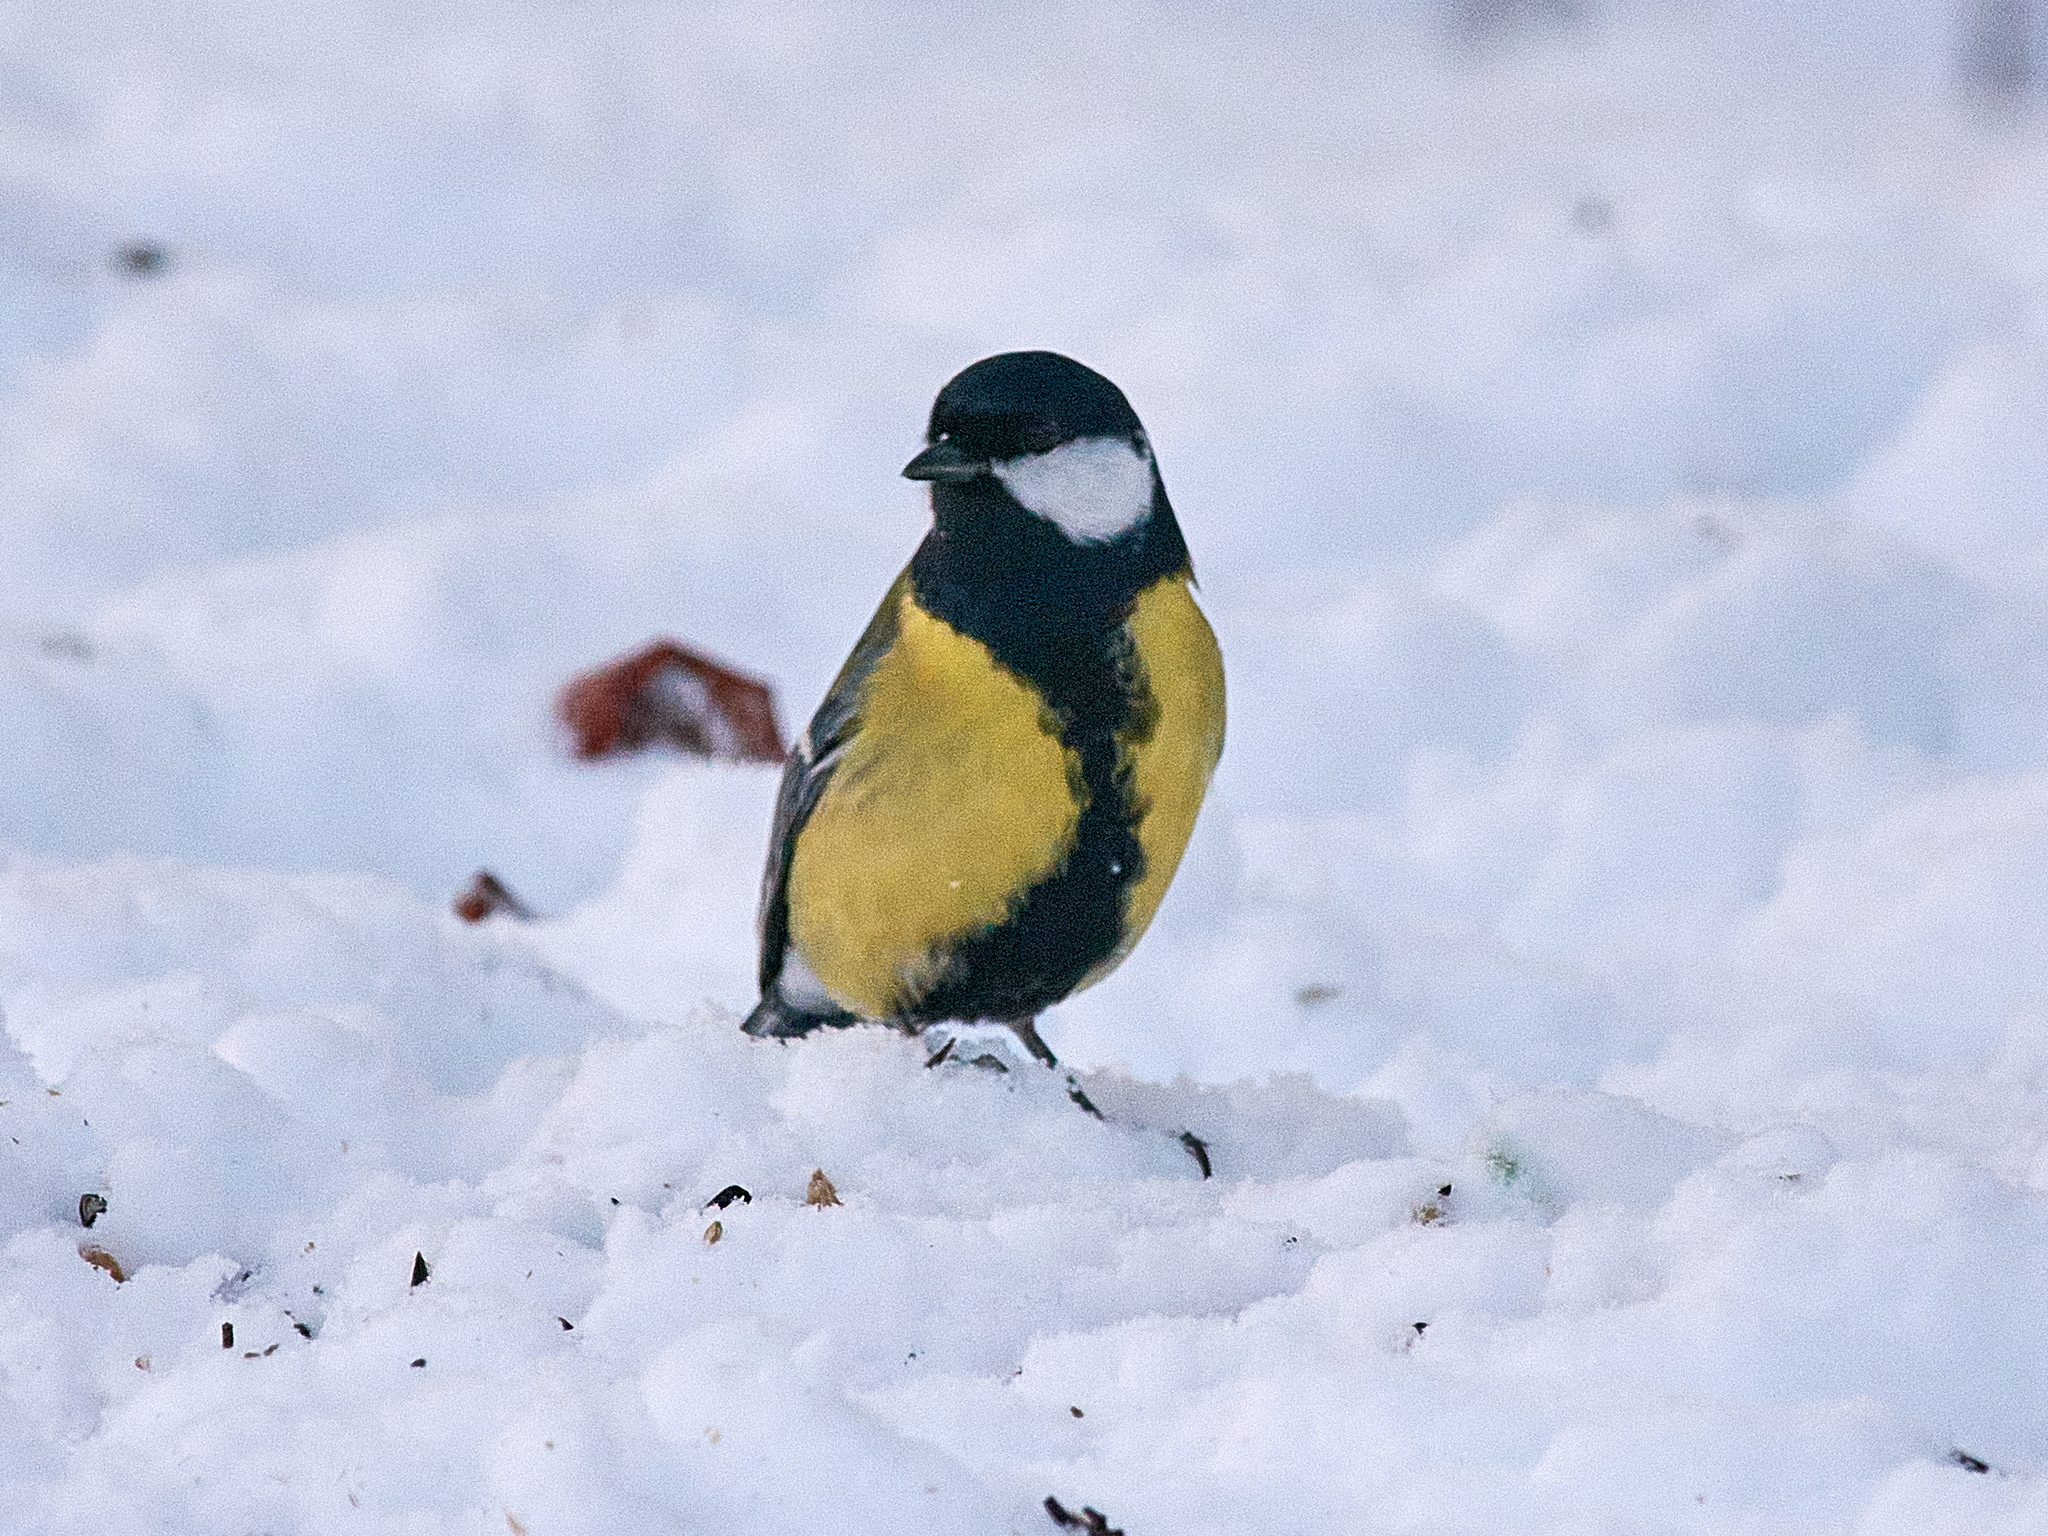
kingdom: Animalia
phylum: Chordata
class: Aves
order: Passeriformes
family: Paridae
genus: Parus
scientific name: Parus major
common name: Great tit
